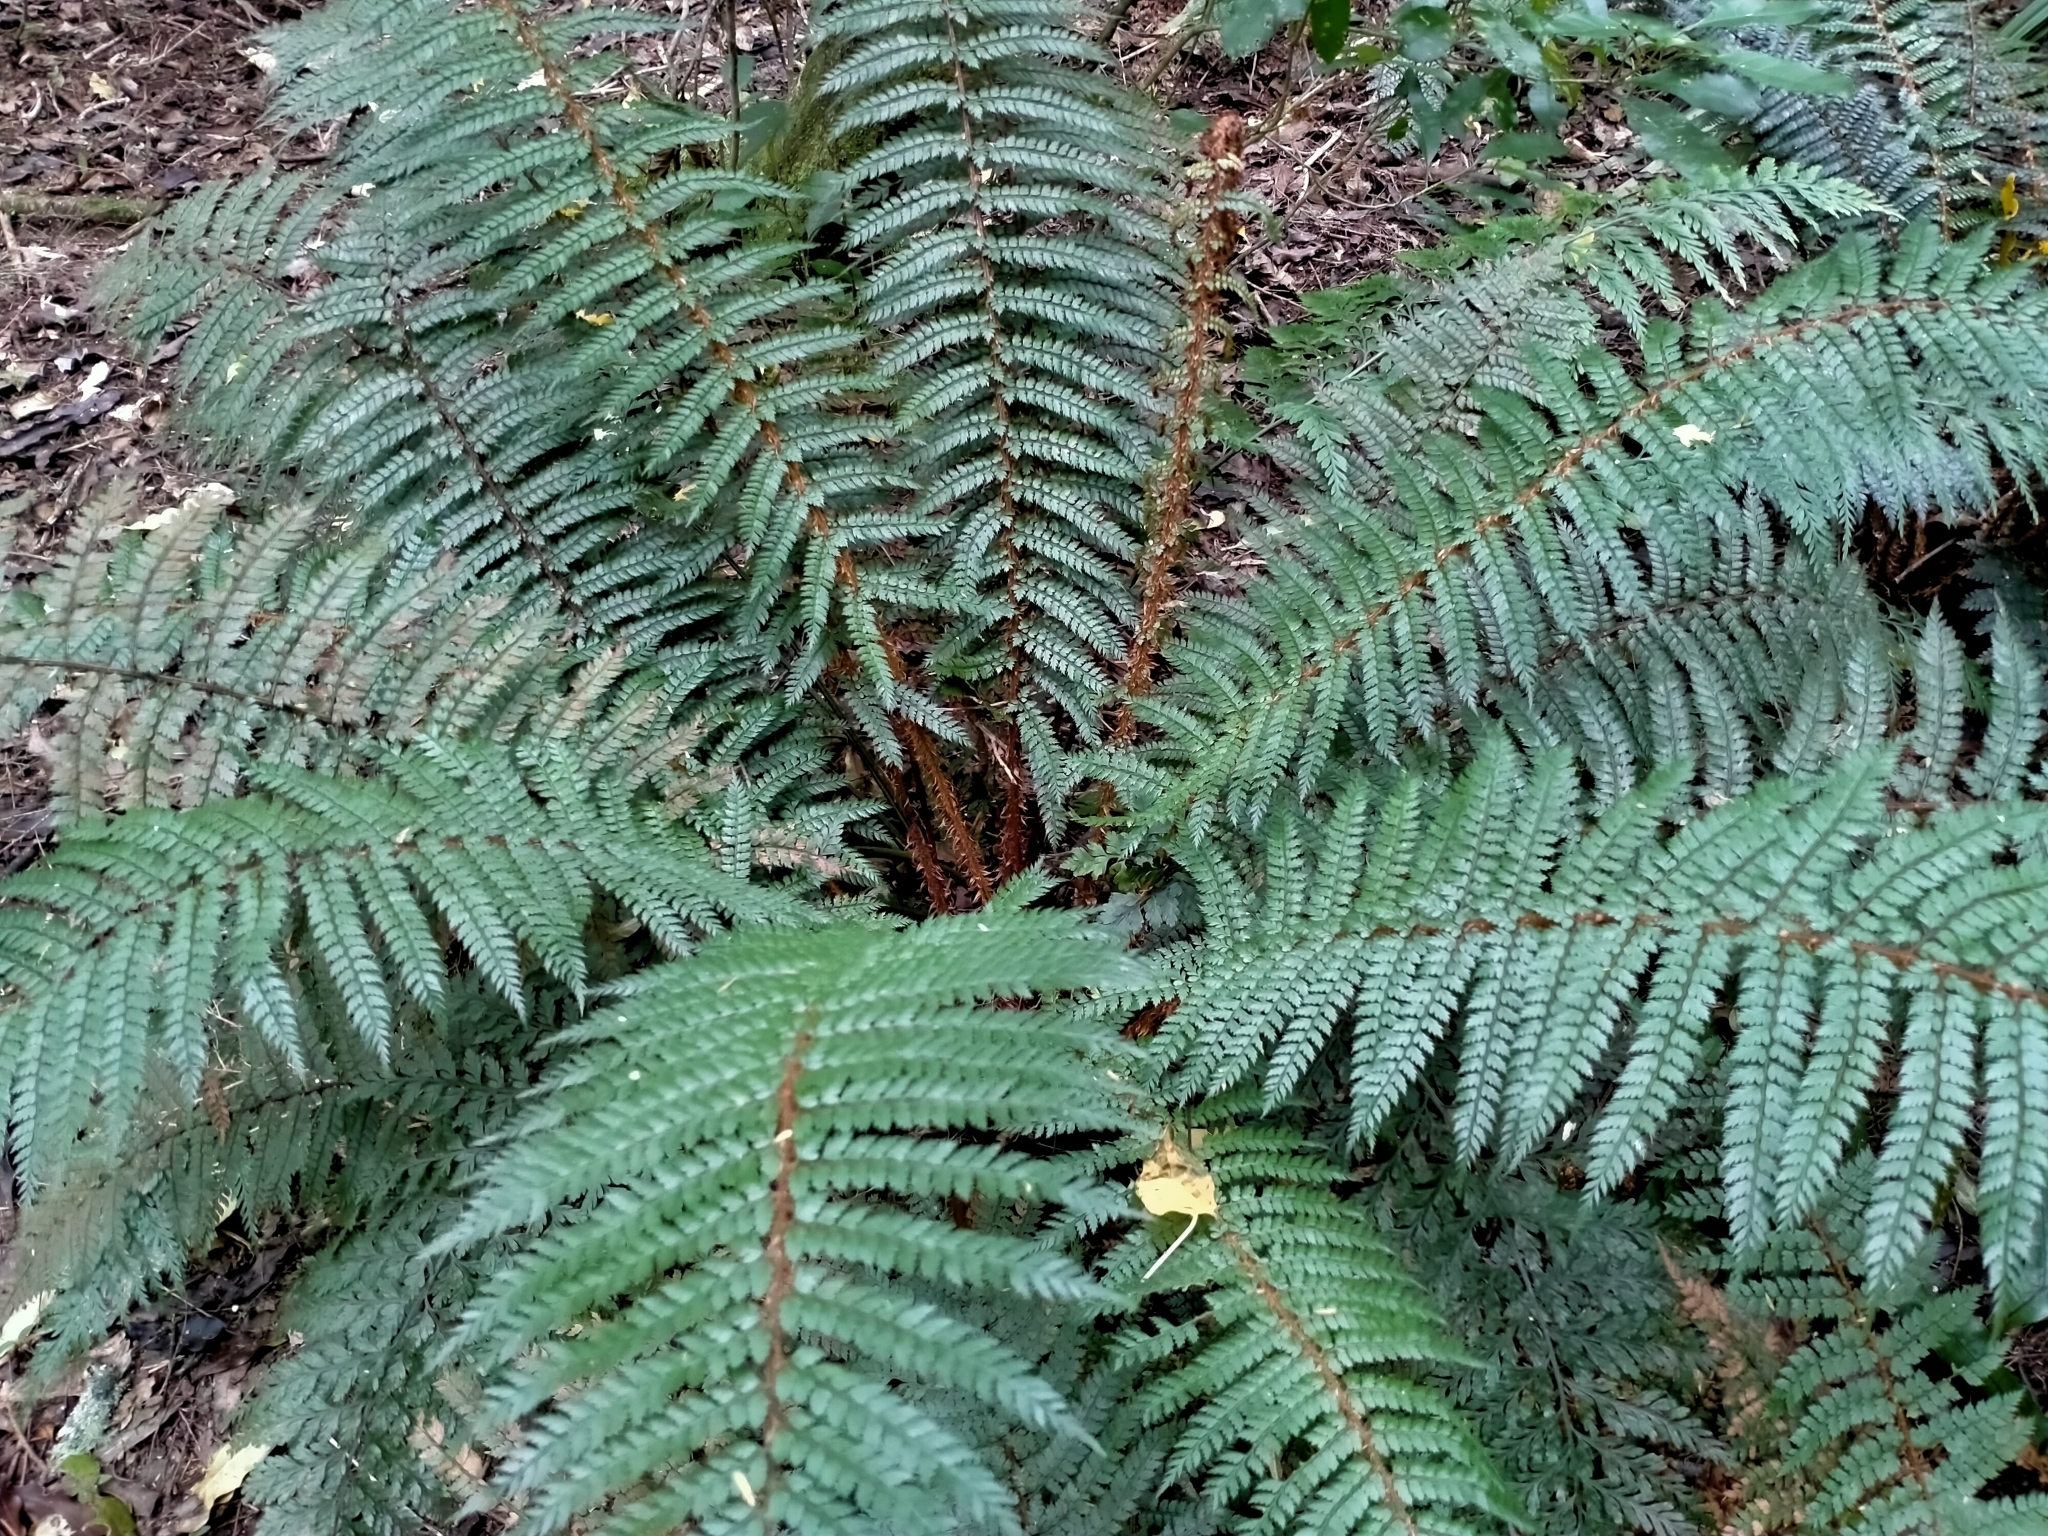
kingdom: Plantae
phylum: Tracheophyta
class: Polypodiopsida
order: Polypodiales
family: Dryopteridaceae
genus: Polystichum
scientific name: Polystichum vestitum
